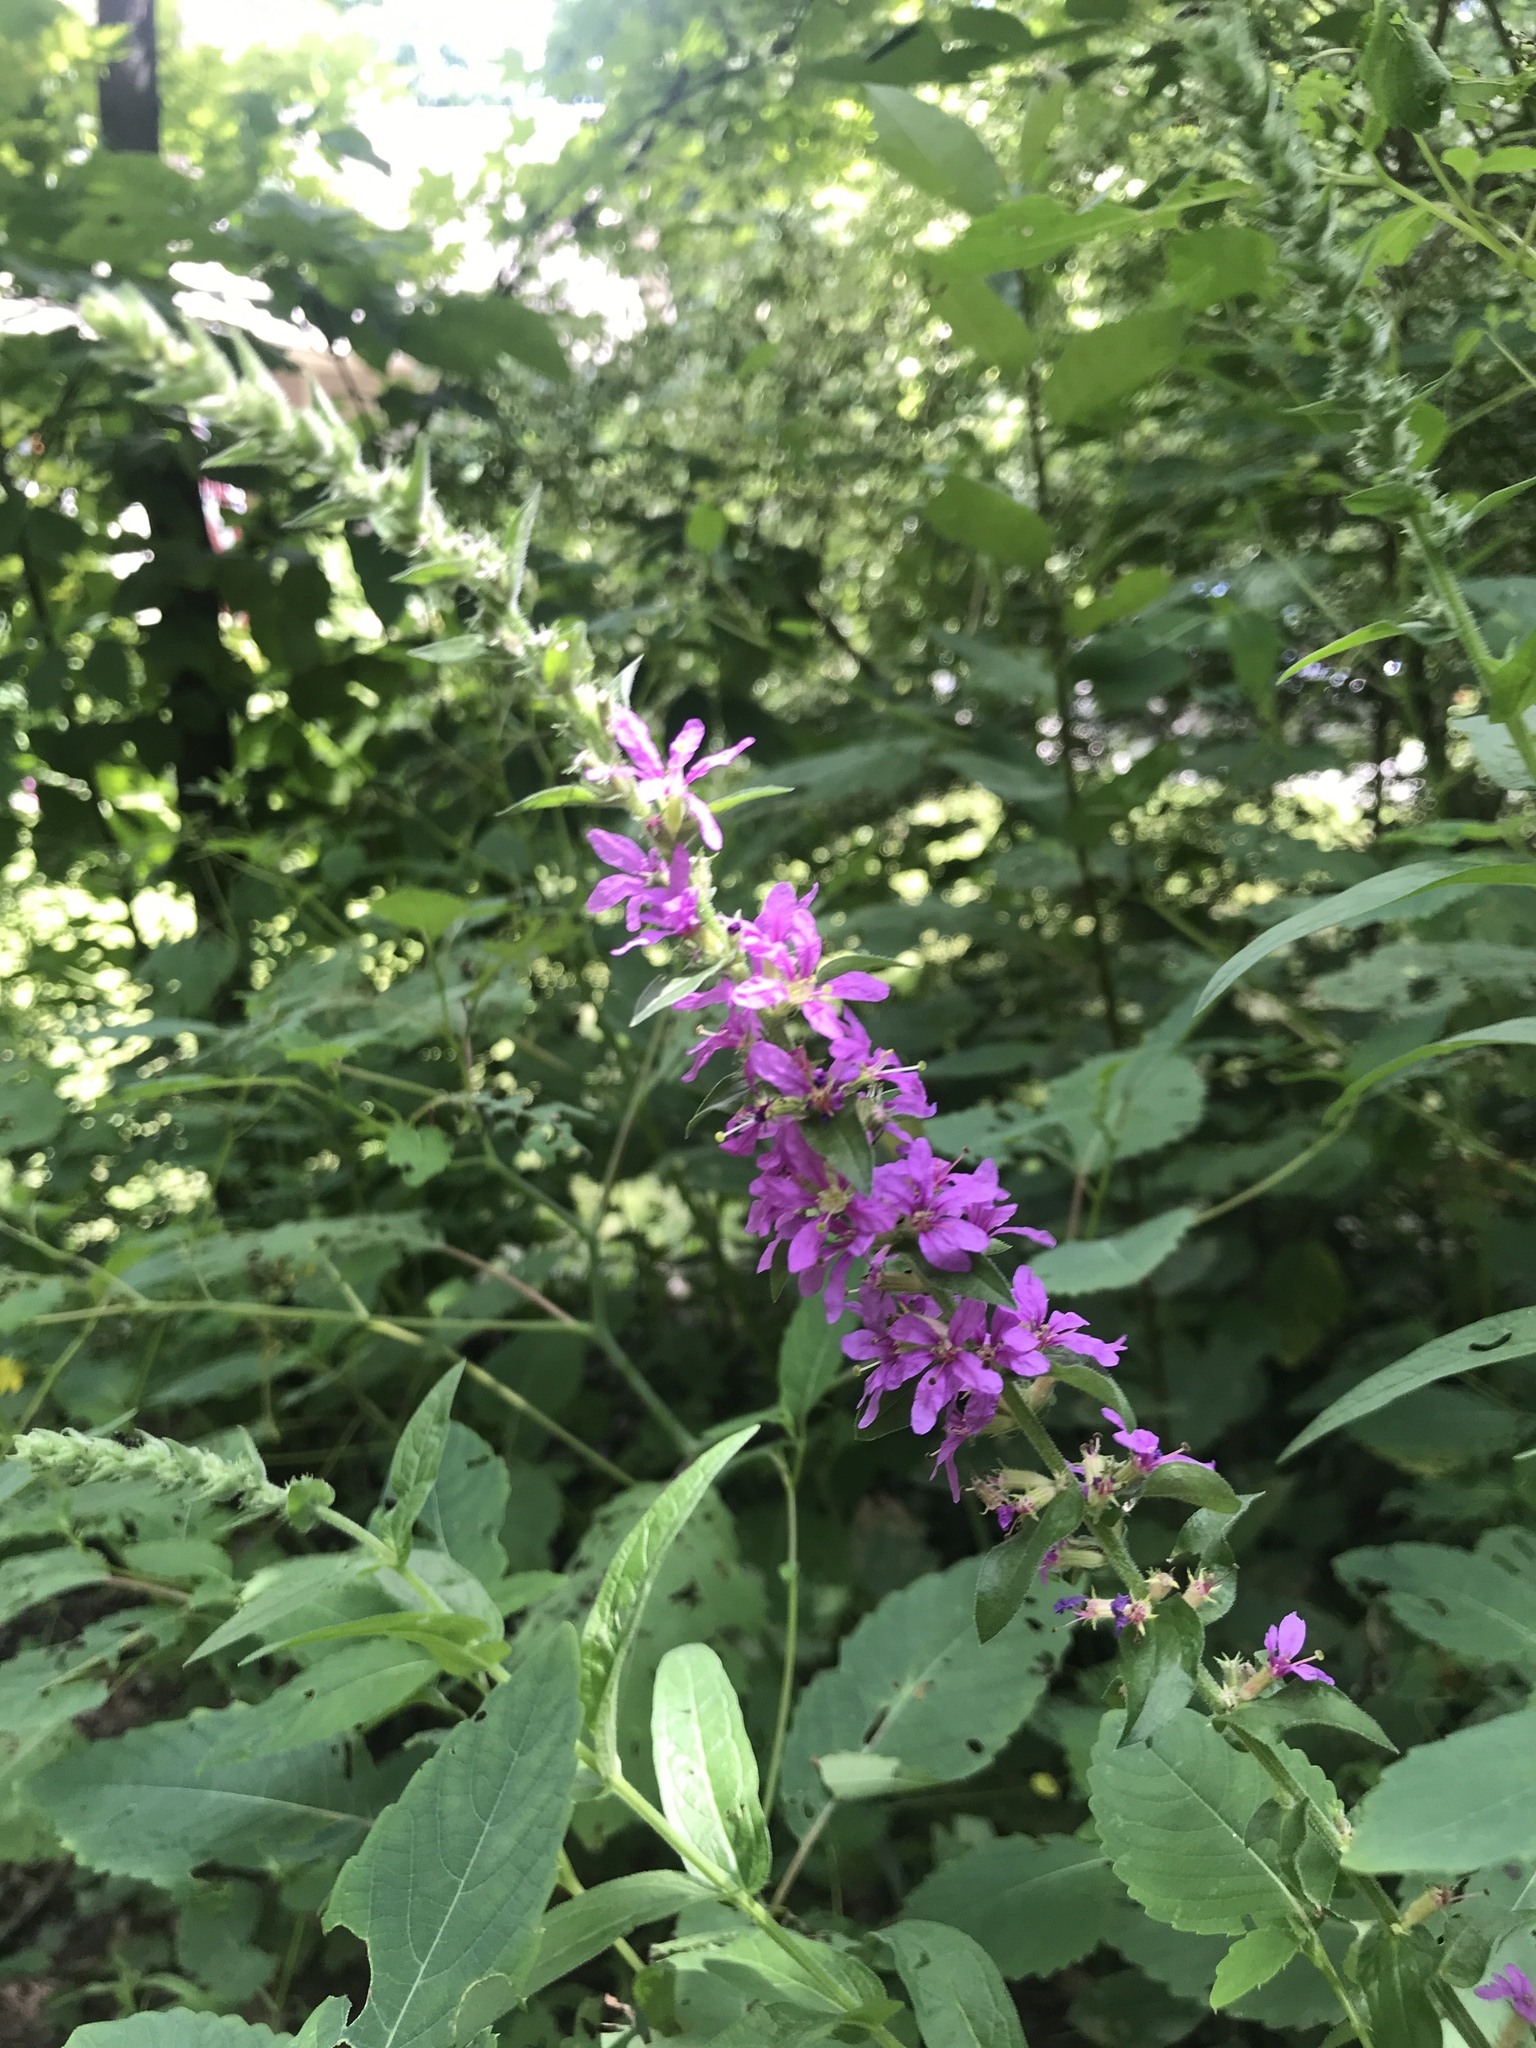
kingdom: Plantae
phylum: Tracheophyta
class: Magnoliopsida
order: Myrtales
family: Lythraceae
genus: Lythrum
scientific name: Lythrum salicaria
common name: Purple loosestrife
